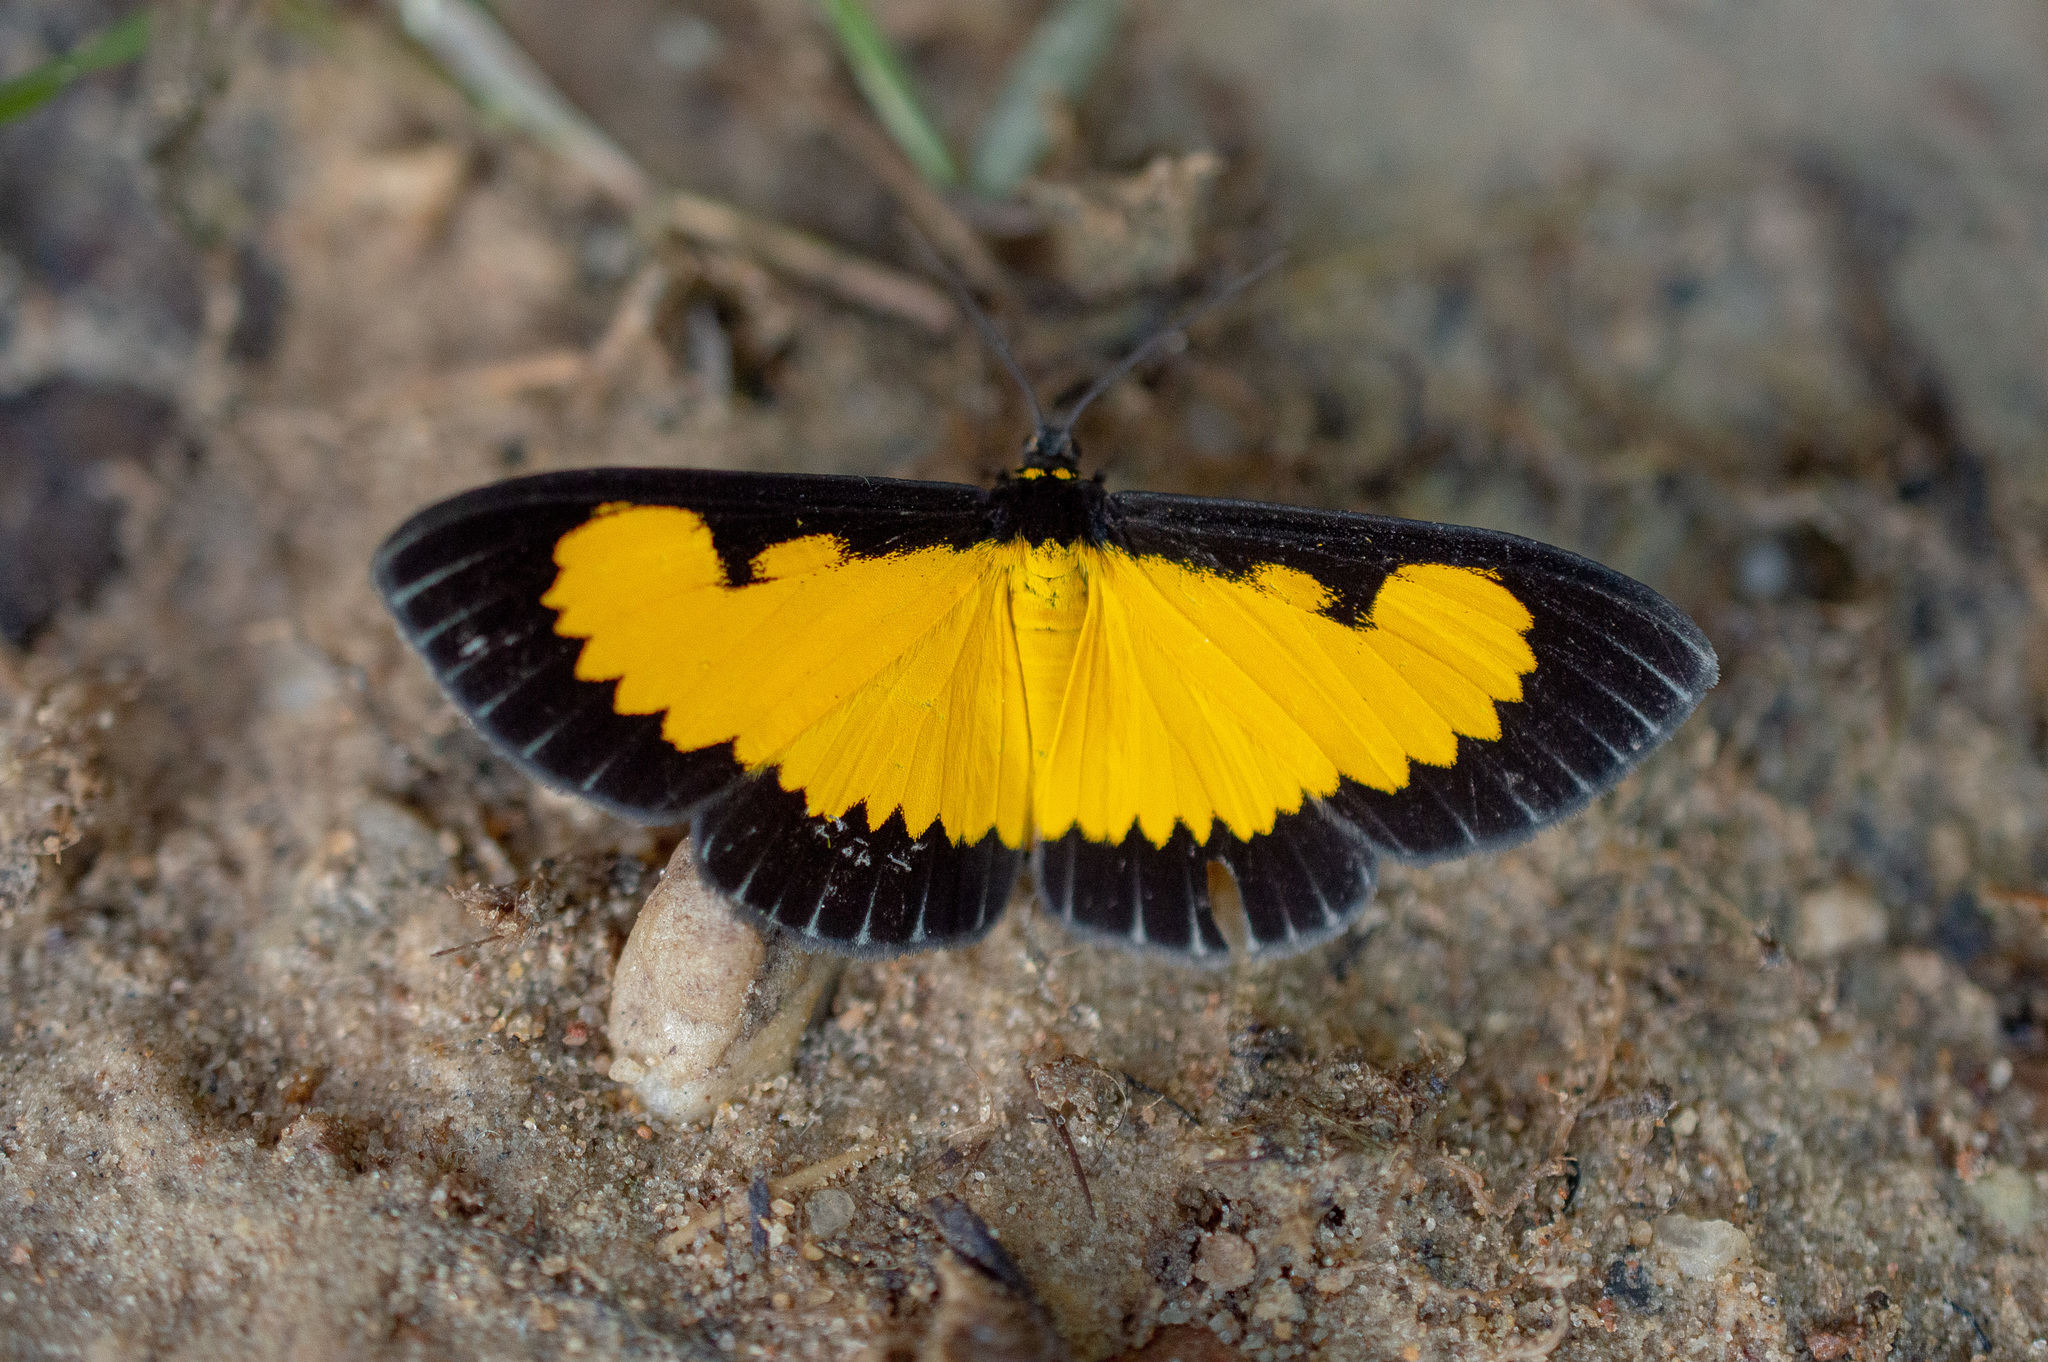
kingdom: Animalia
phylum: Arthropoda
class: Insecta
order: Lepidoptera
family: Geometridae
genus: Xanthyris
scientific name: Xanthyris flaveolata
